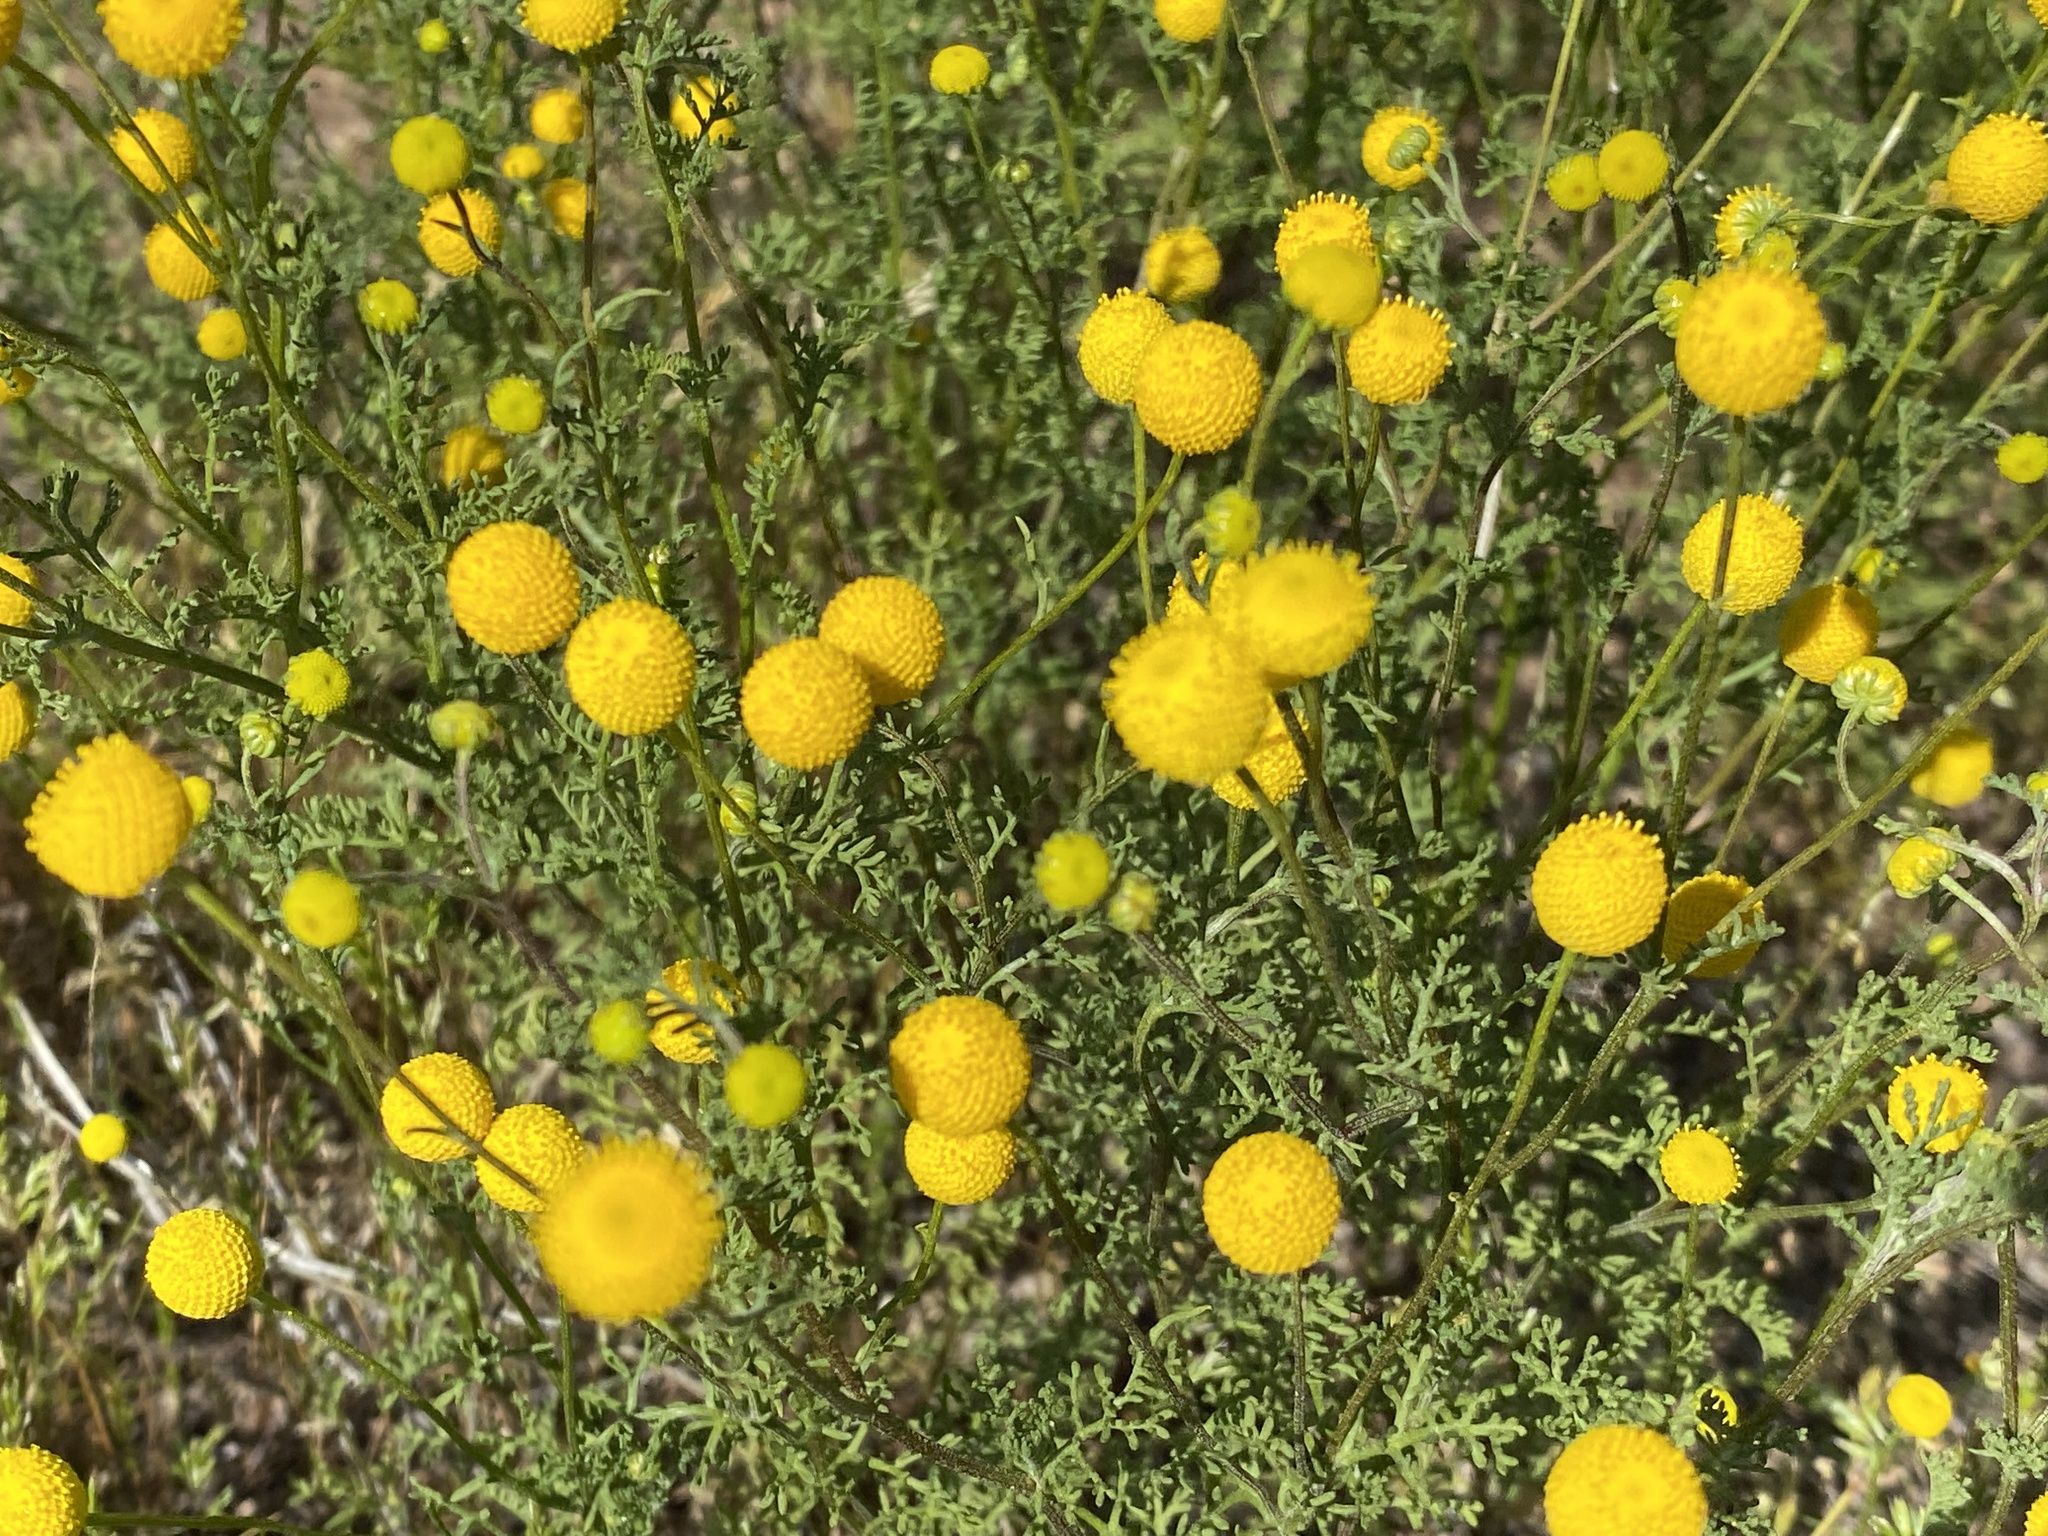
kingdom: Plantae
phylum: Tracheophyta
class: Magnoliopsida
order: Asterales
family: Asteraceae
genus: Oncosiphon
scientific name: Oncosiphon pilulifer
